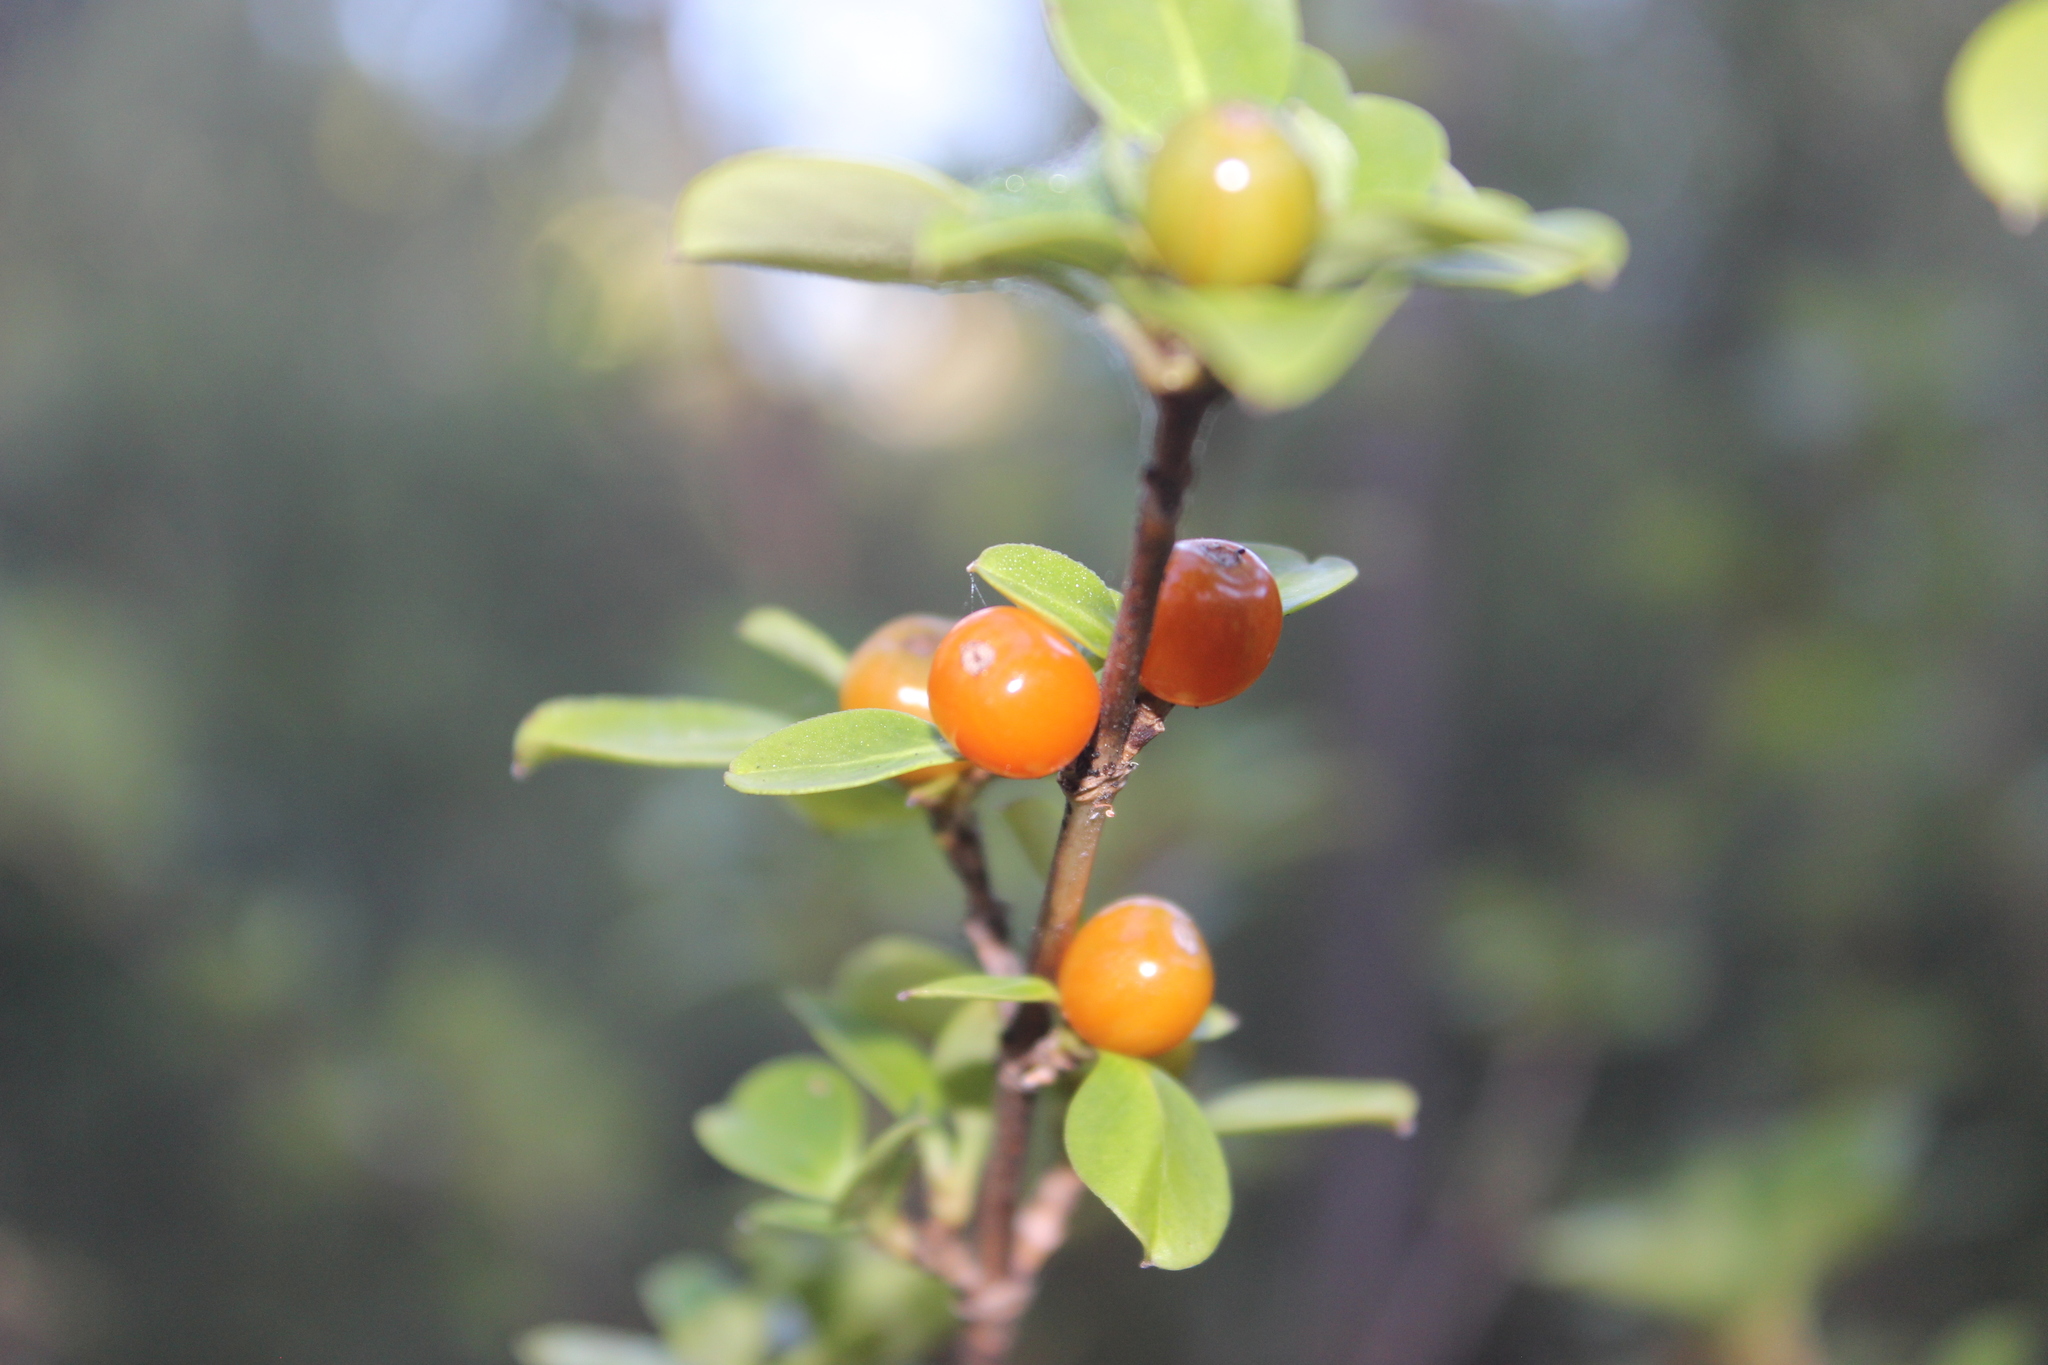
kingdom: Plantae
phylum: Tracheophyta
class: Magnoliopsida
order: Gentianales
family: Rubiaceae
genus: Coprosma
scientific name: Coprosma foetidissima
